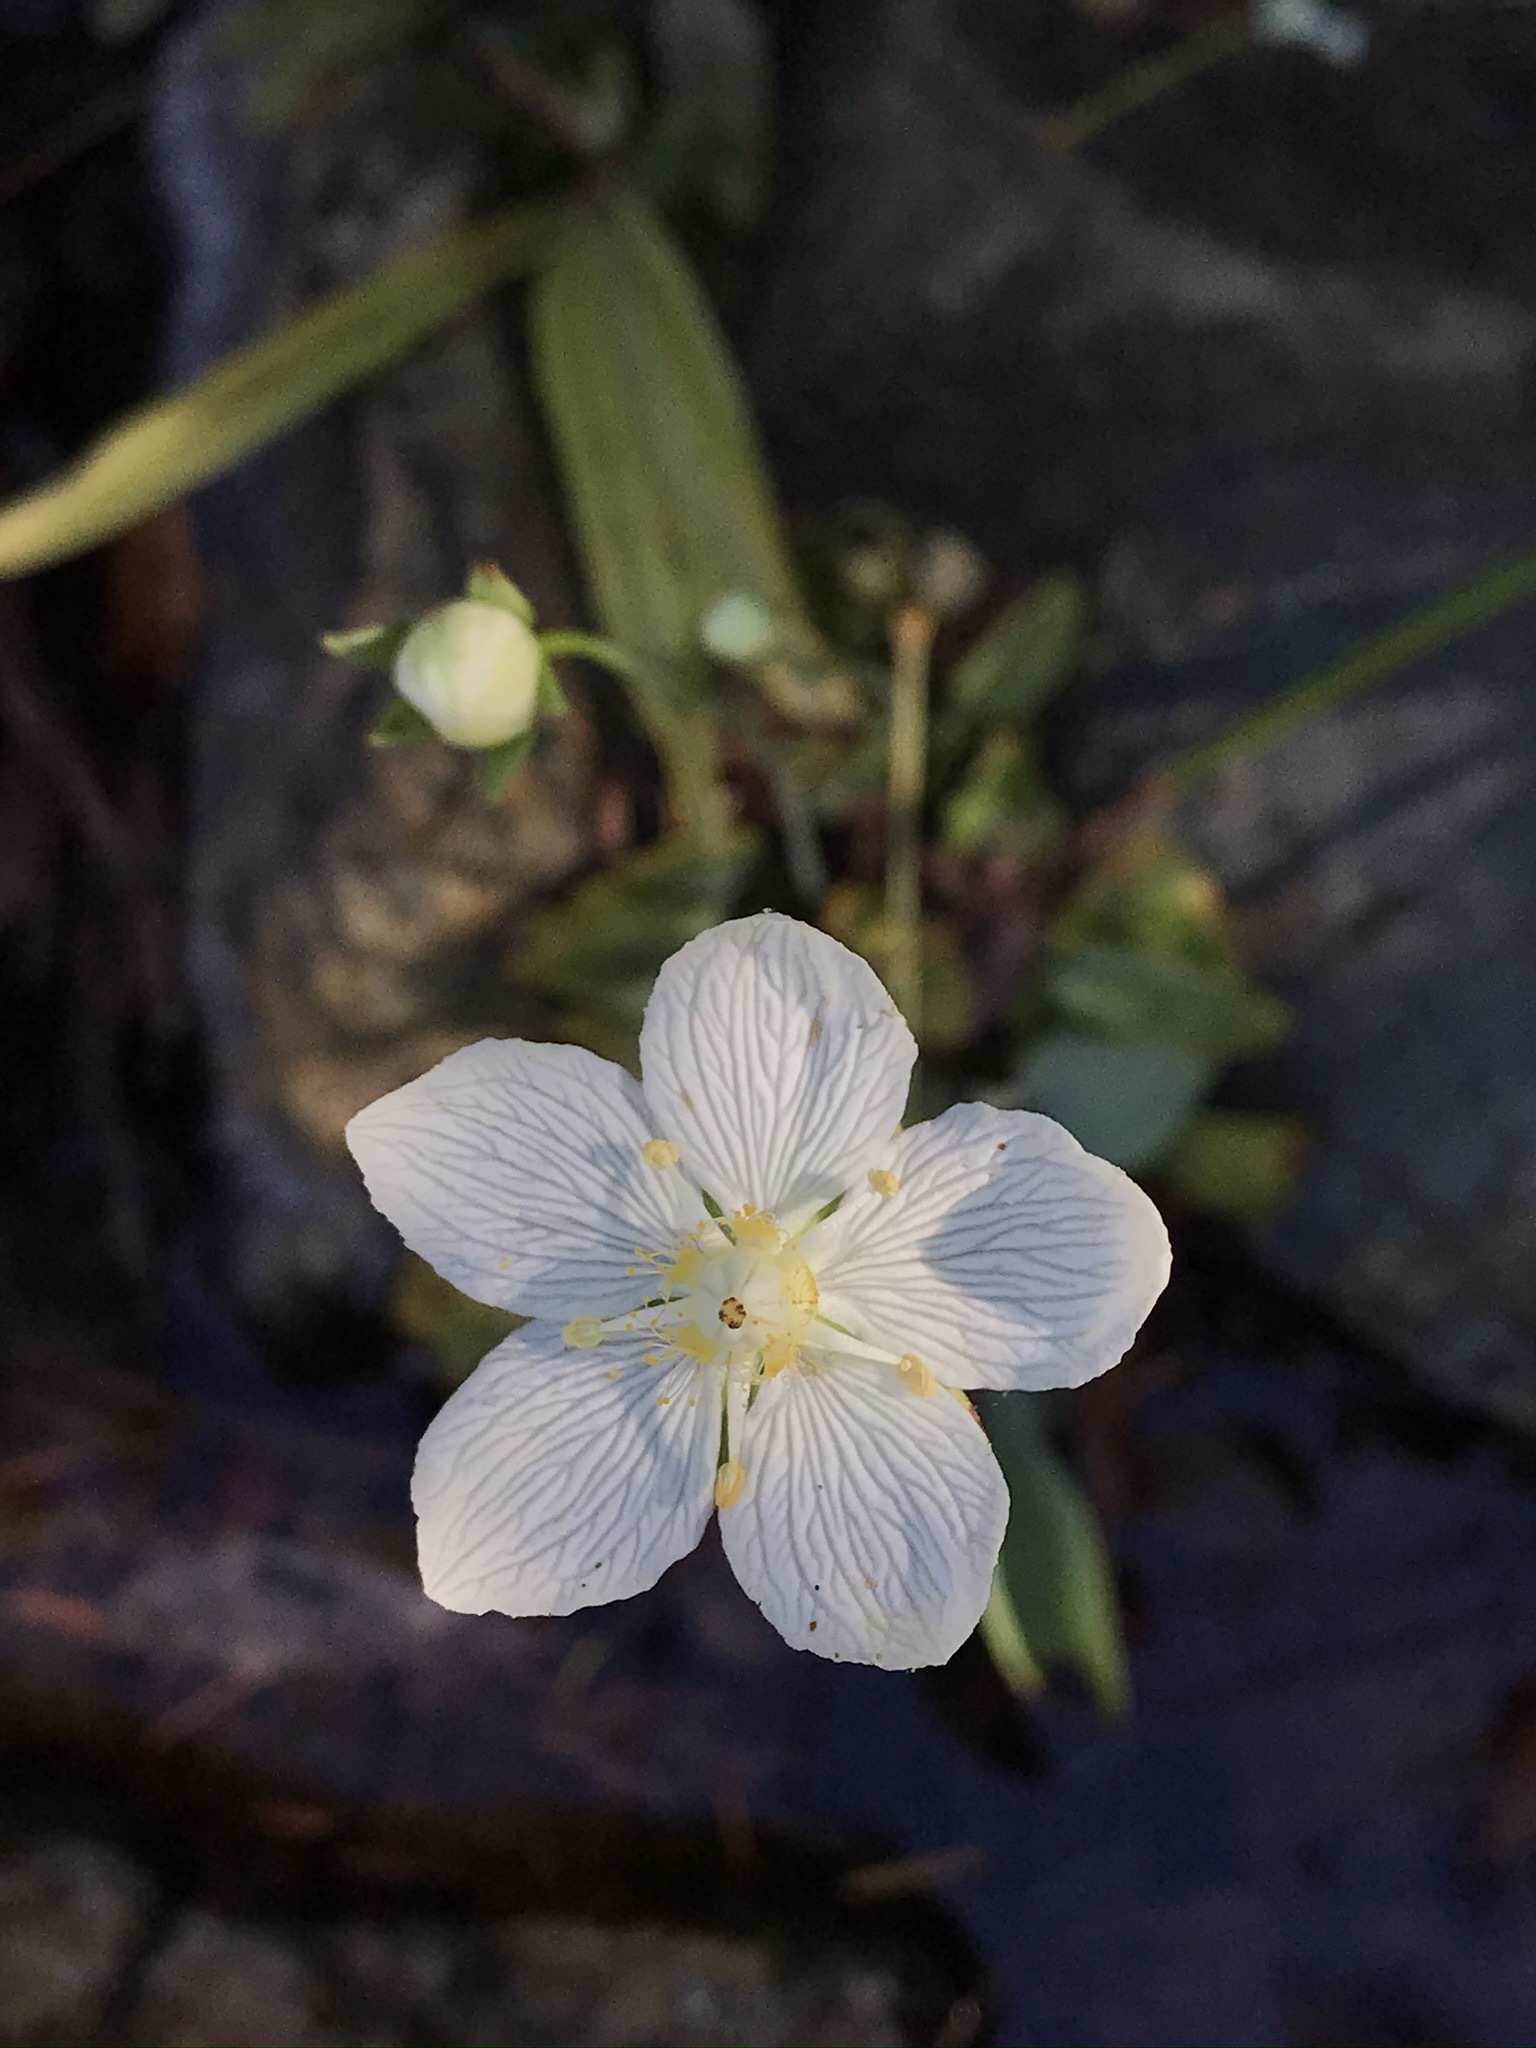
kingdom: Plantae
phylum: Tracheophyta
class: Magnoliopsida
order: Celastrales
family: Parnassiaceae
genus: Parnassia
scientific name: Parnassia palustris
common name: Grass-of-parnassus
